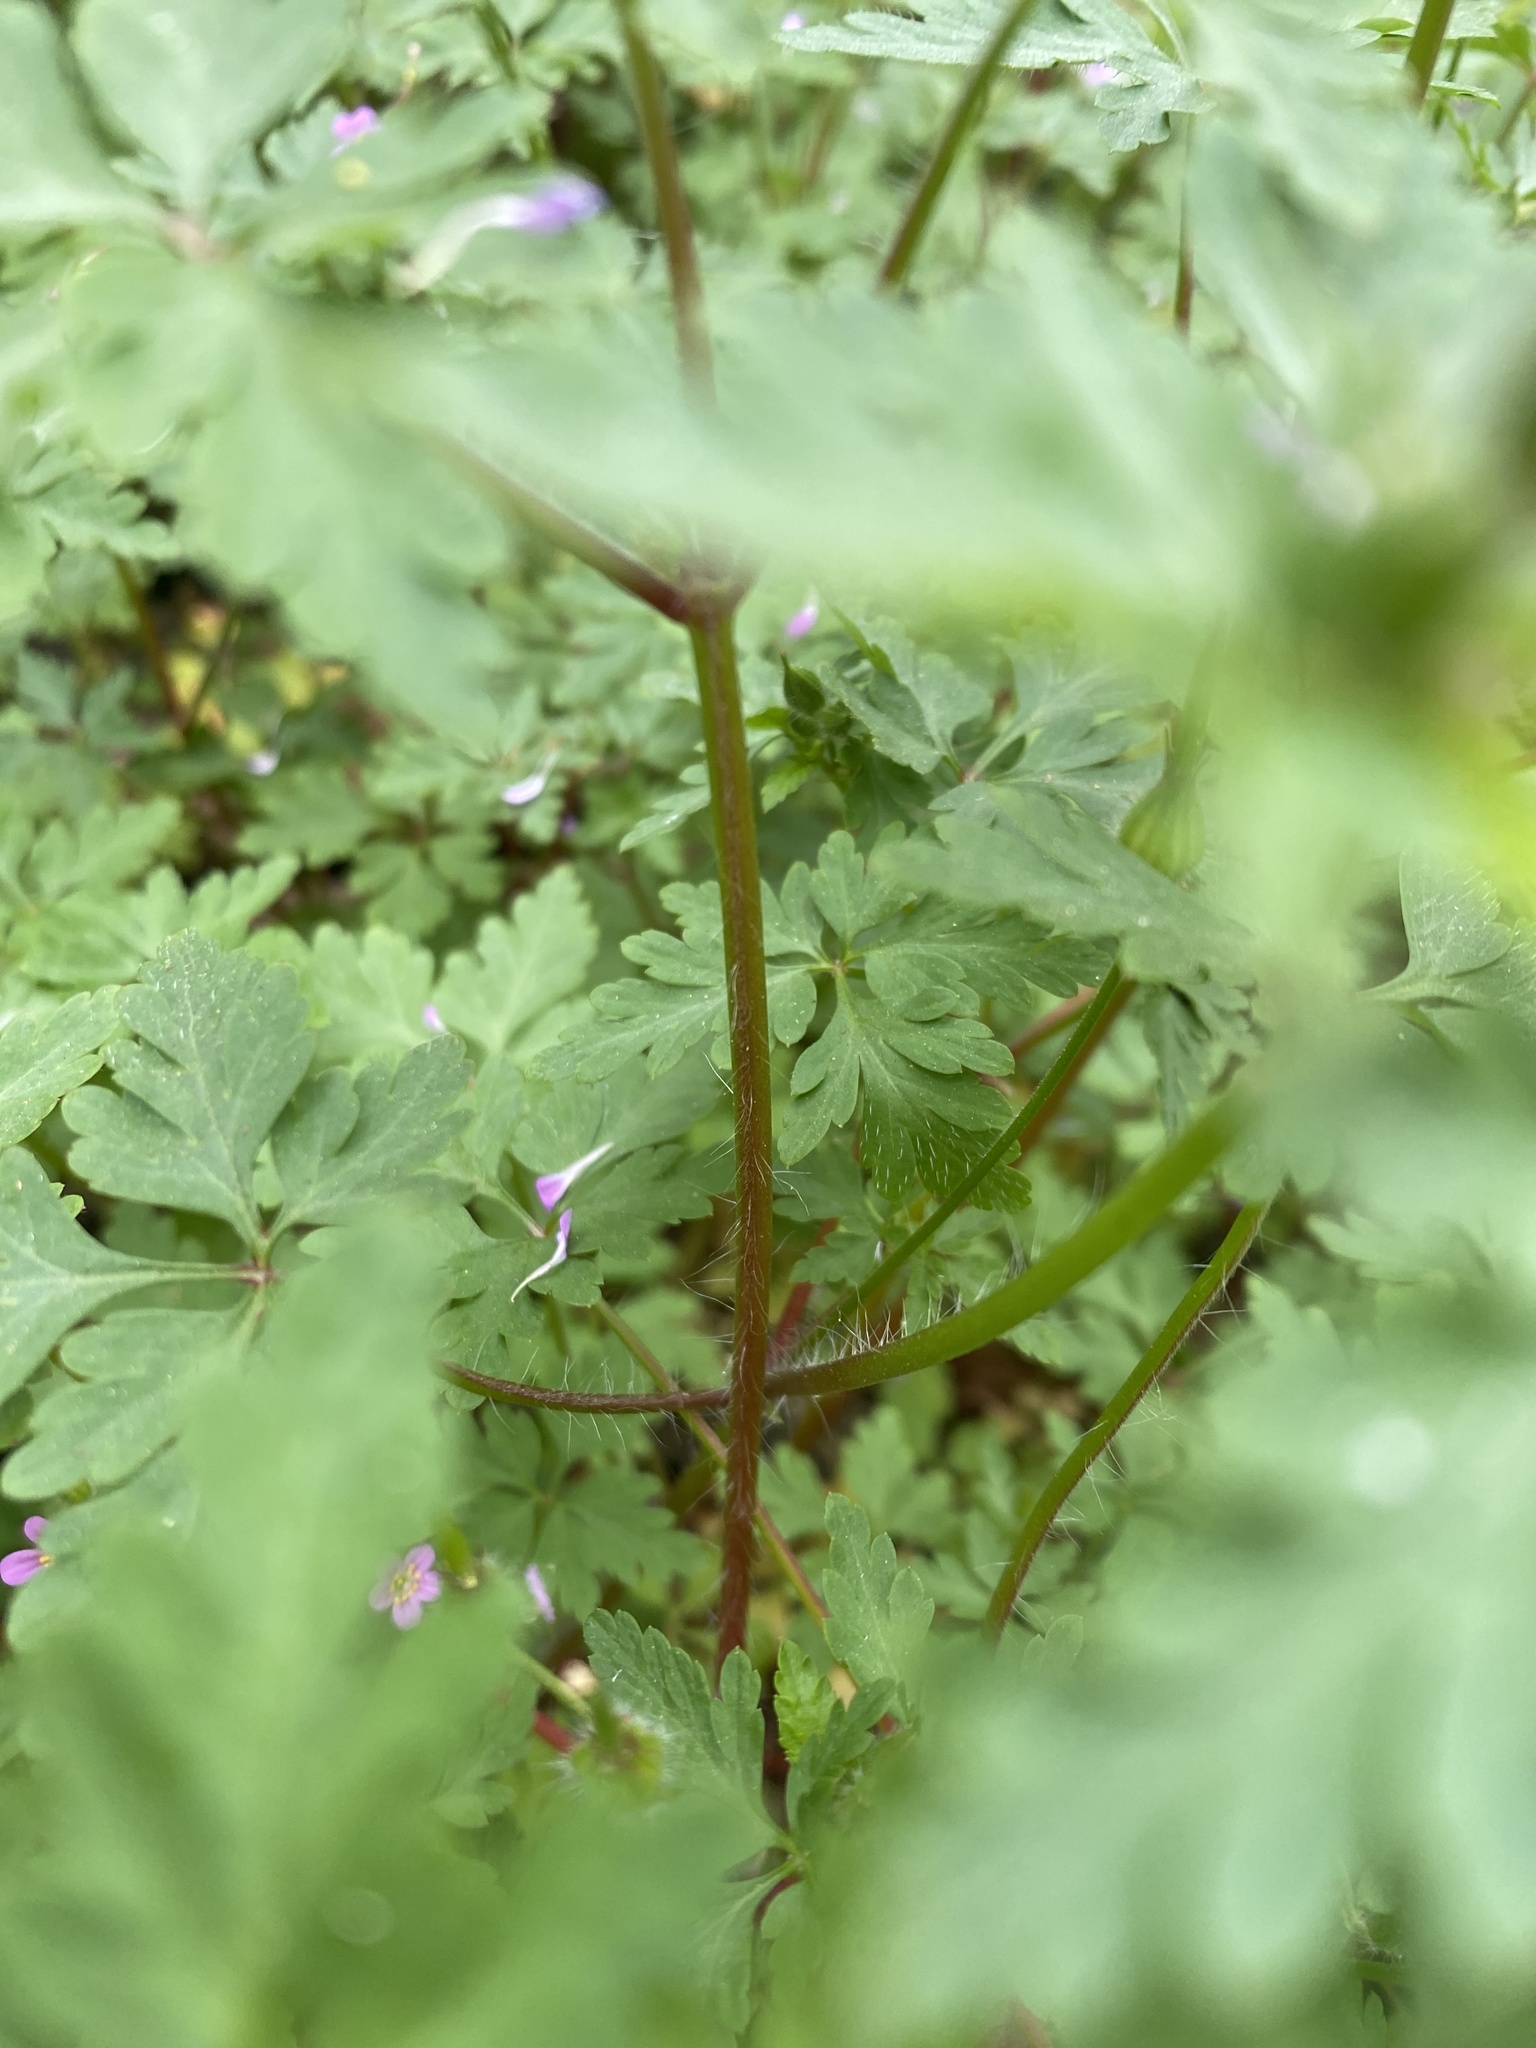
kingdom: Plantae
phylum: Tracheophyta
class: Magnoliopsida
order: Geraniales
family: Geraniaceae
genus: Geranium
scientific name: Geranium purpureum
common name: Little-robin
